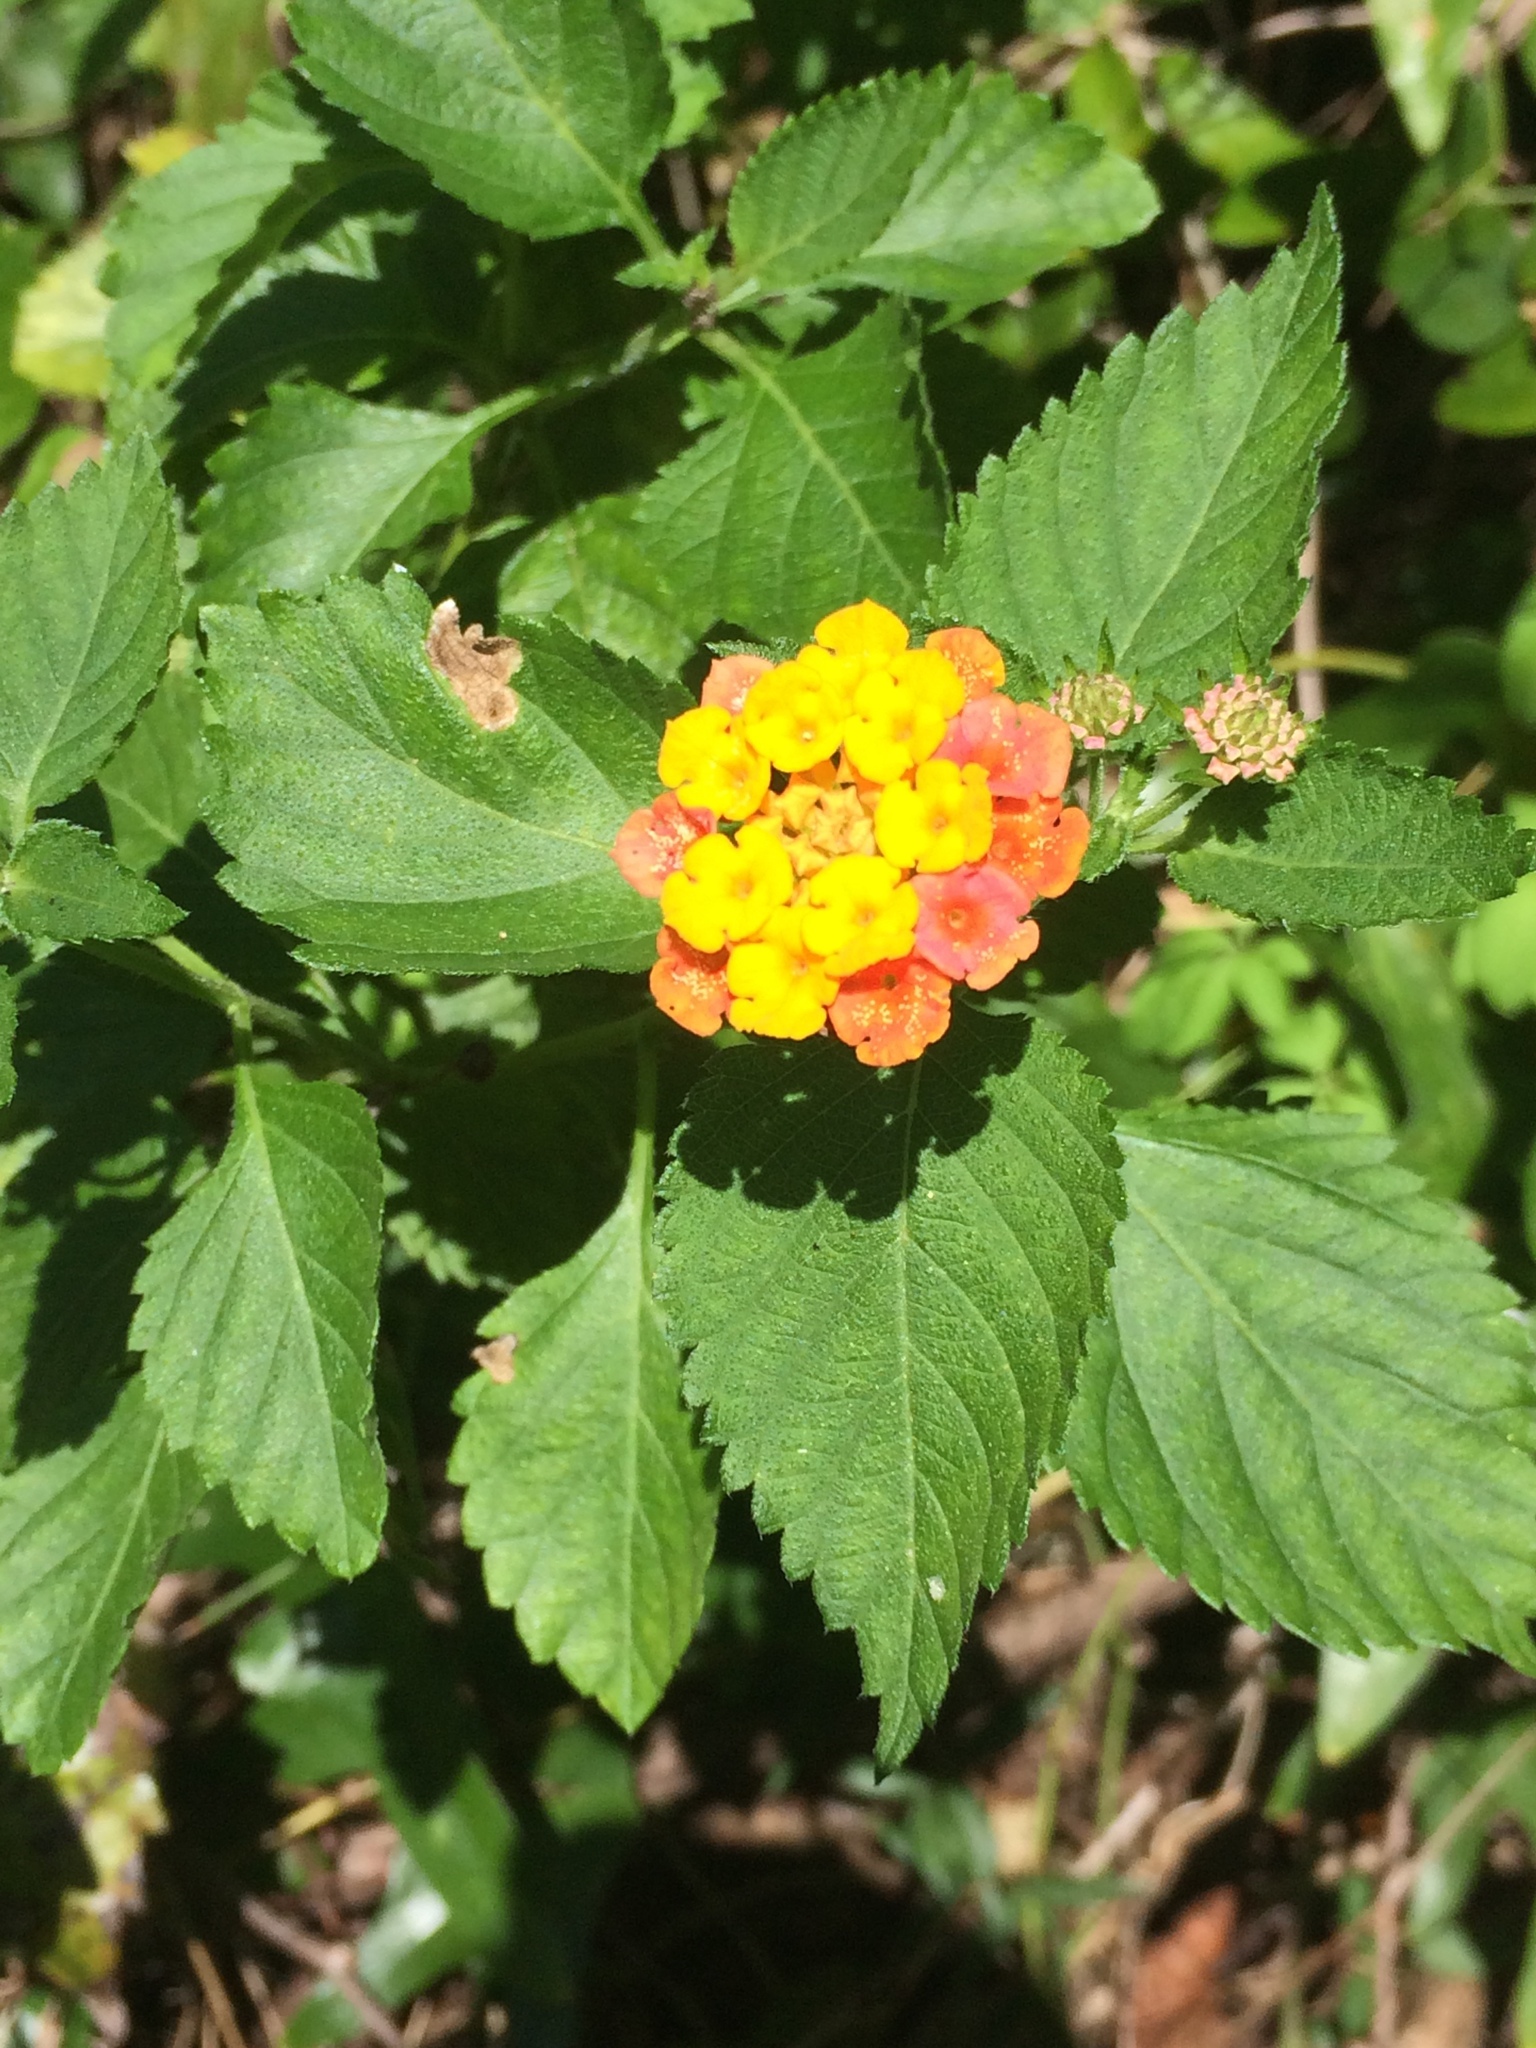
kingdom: Plantae
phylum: Tracheophyta
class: Magnoliopsida
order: Lamiales
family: Verbenaceae
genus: Lantana
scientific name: Lantana camara
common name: Lantana
